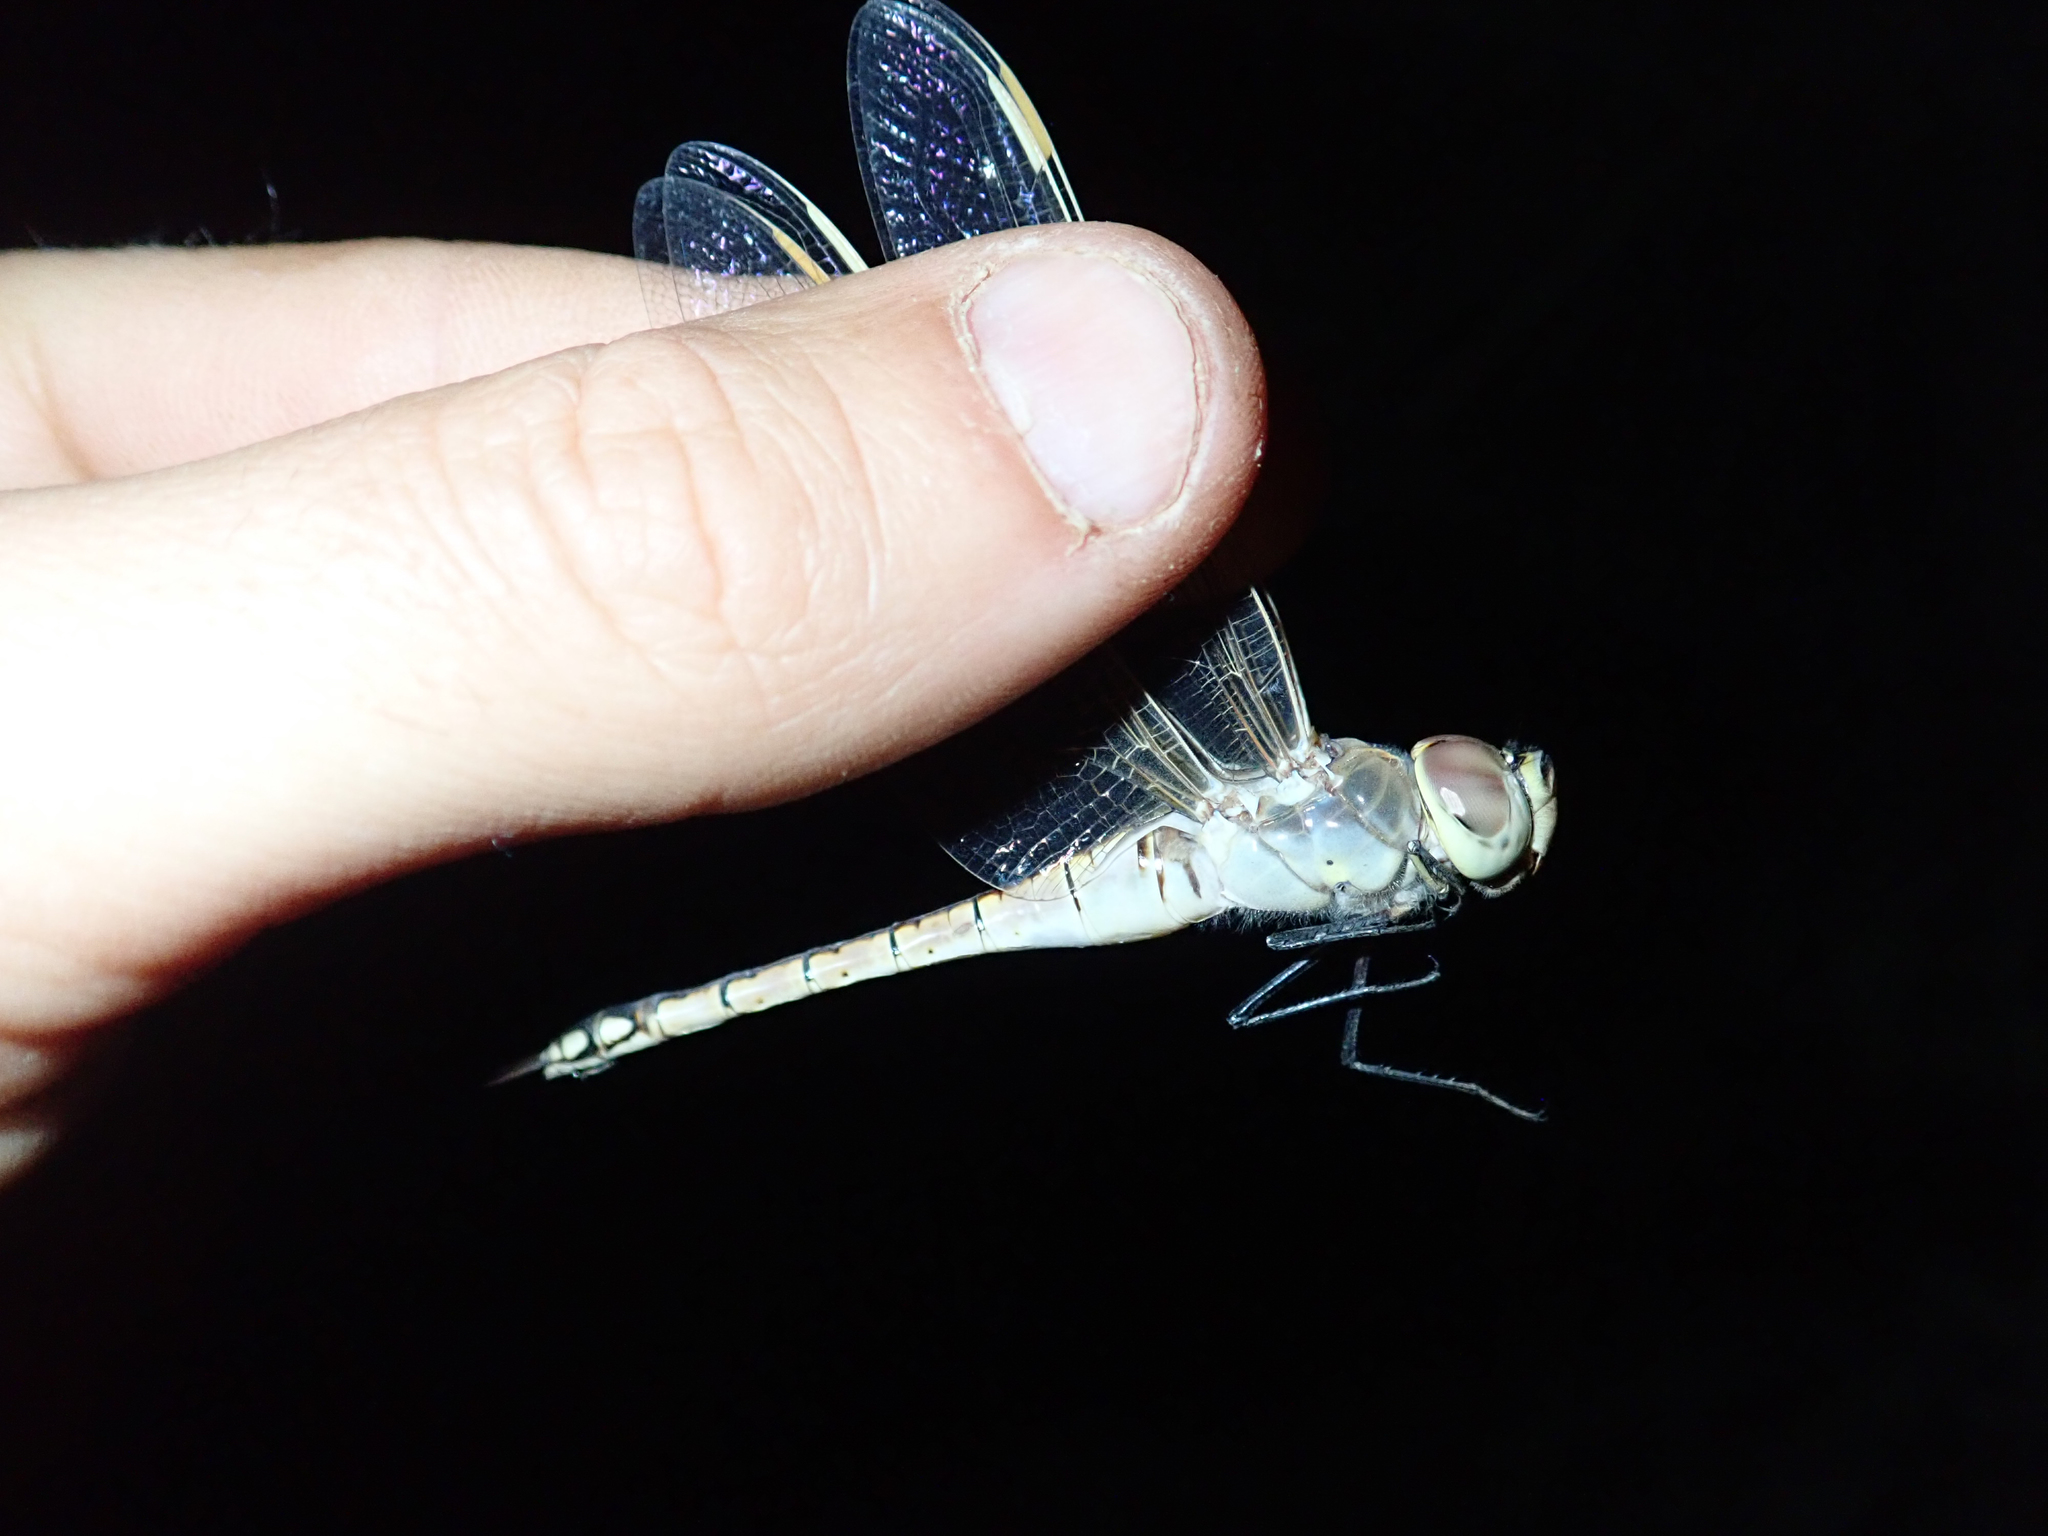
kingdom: Animalia
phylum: Arthropoda
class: Insecta
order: Odonata
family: Aeshnidae
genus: Anax
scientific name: Anax ephippiger
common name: Vagrant emperor
